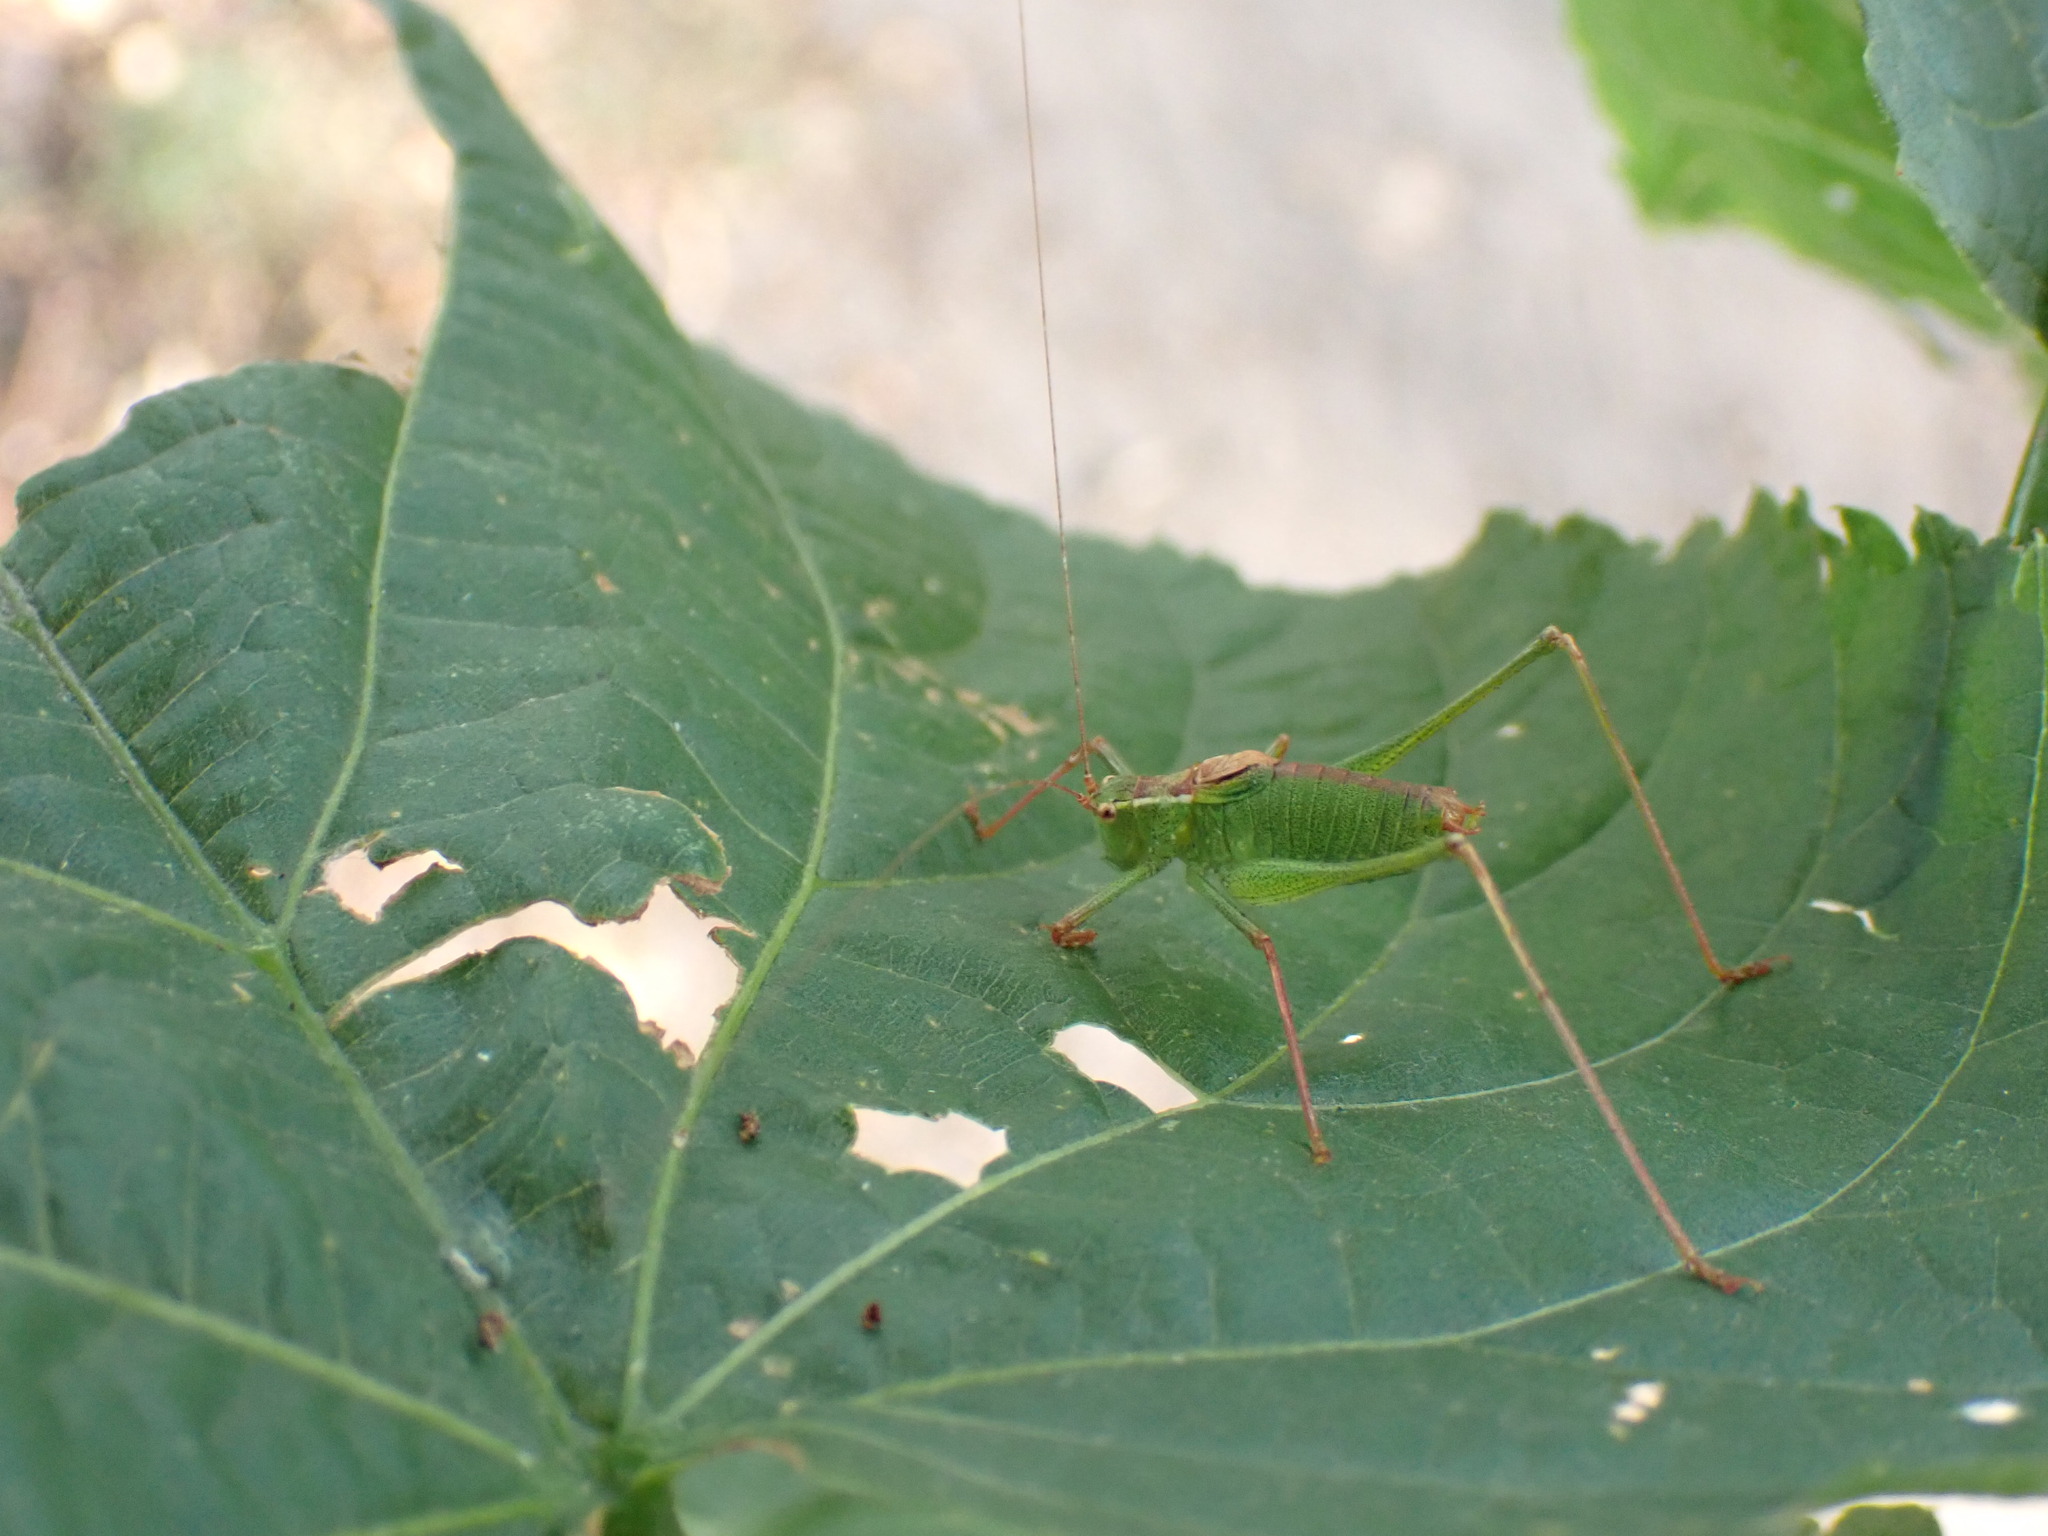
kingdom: Animalia
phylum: Arthropoda
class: Insecta
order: Orthoptera
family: Tettigoniidae
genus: Leptophyes
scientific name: Leptophyes punctatissima
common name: Speckled bush-cricket
